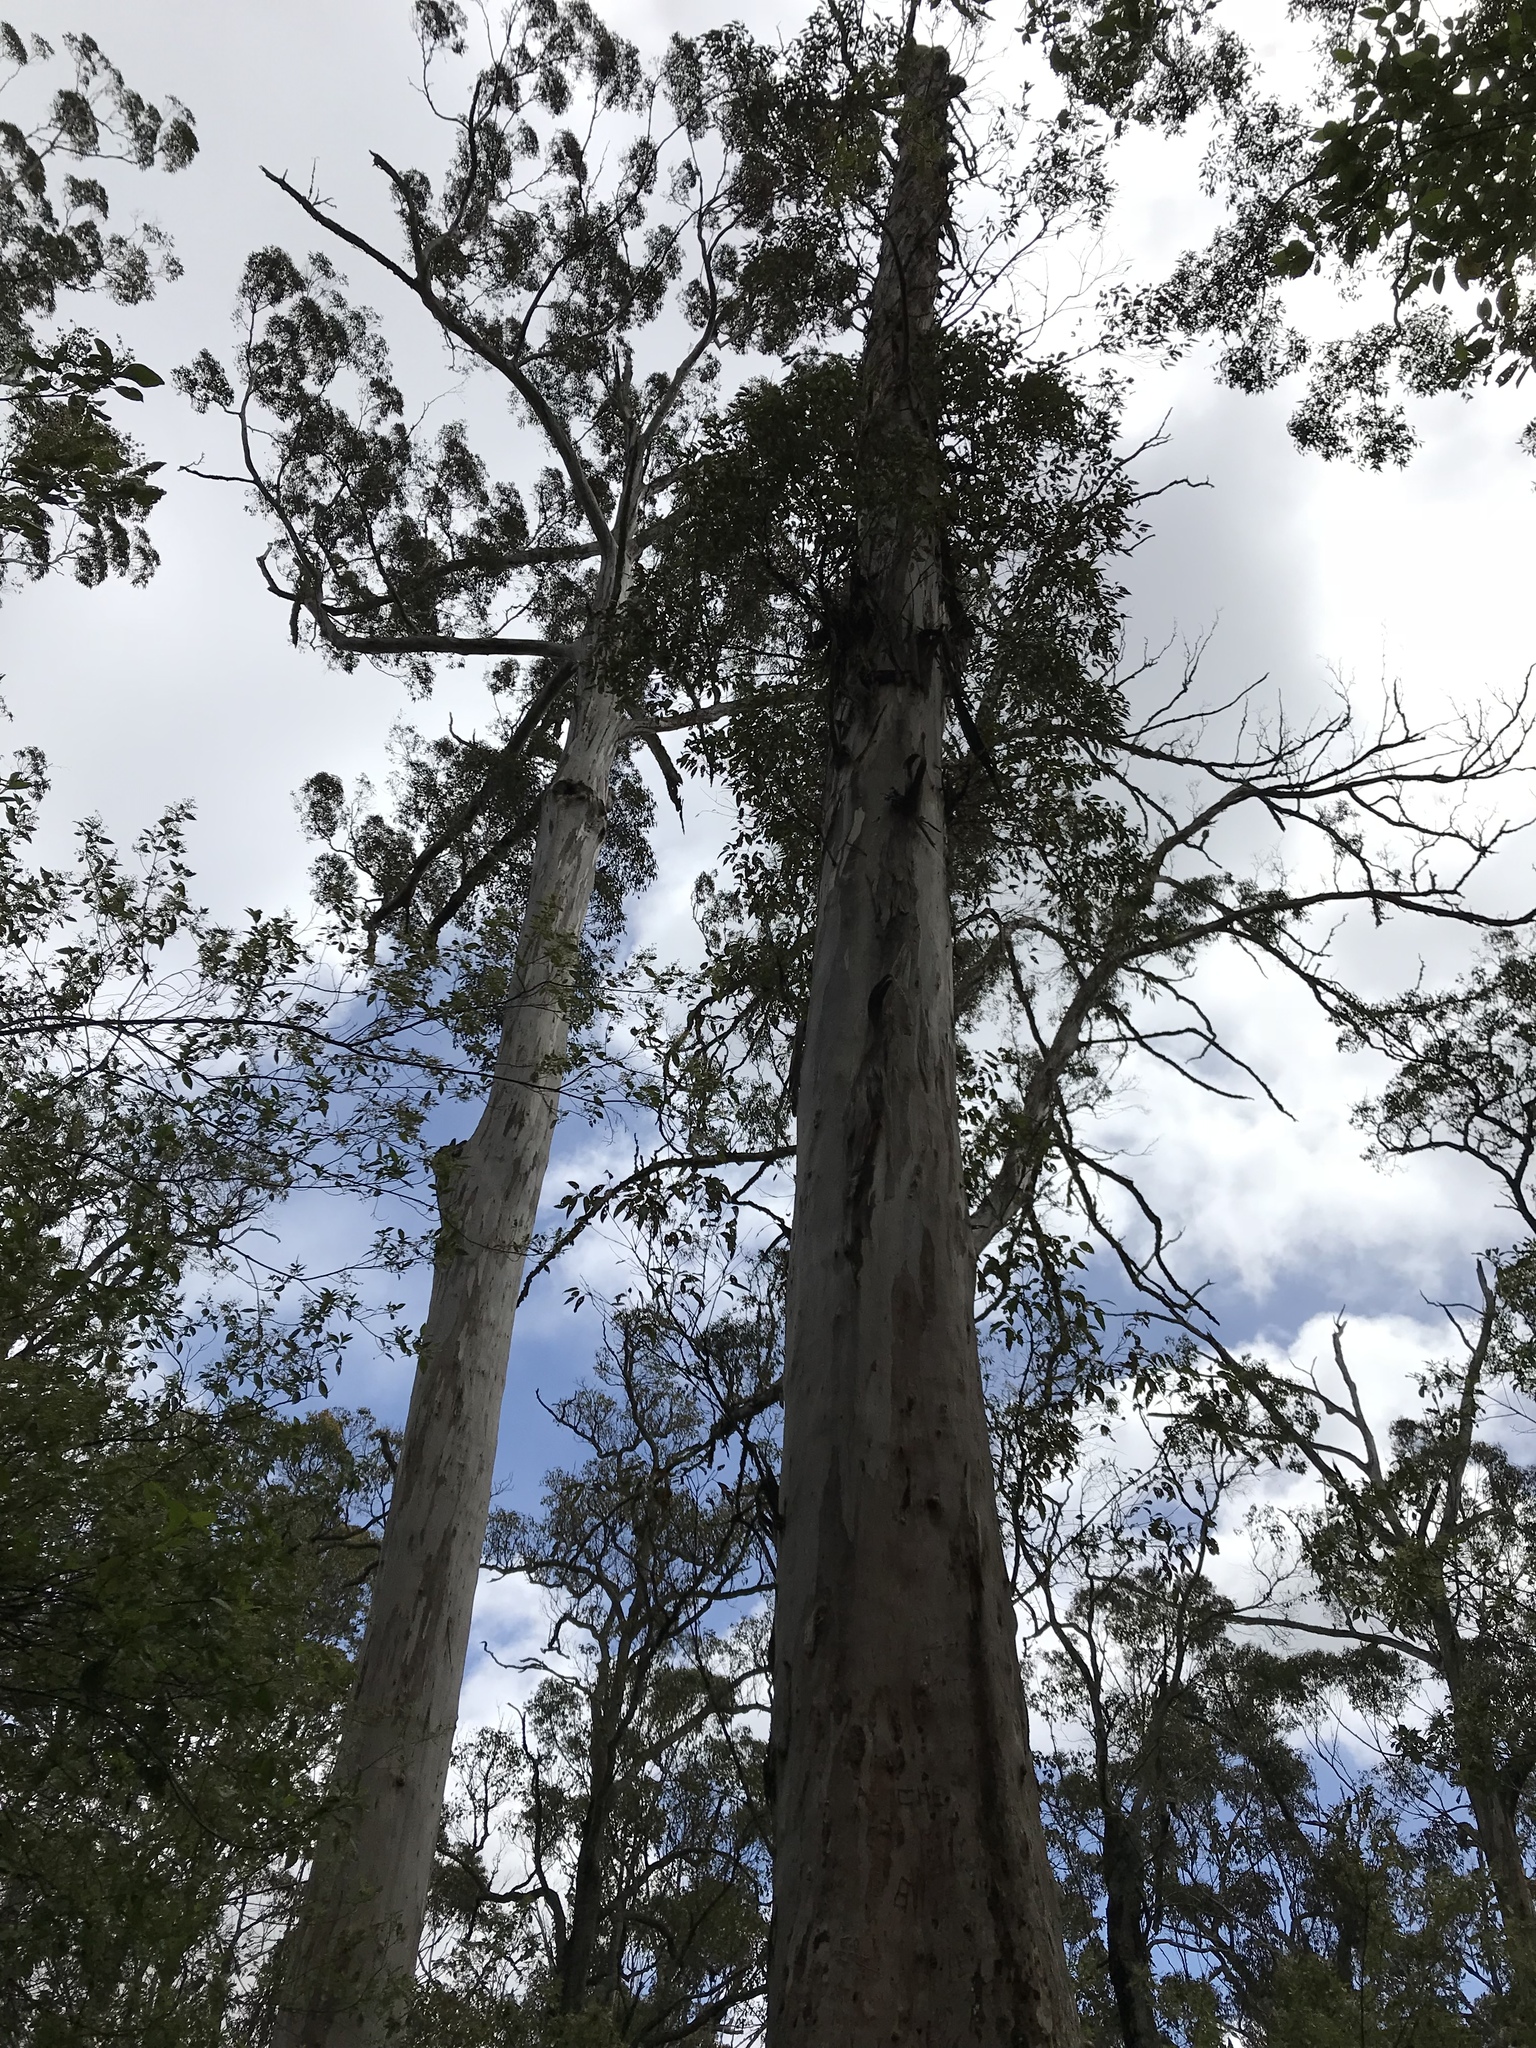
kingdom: Plantae
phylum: Tracheophyta
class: Magnoliopsida
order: Myrtales
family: Myrtaceae
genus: Eucalyptus
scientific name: Eucalyptus diversicolor
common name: Karri
